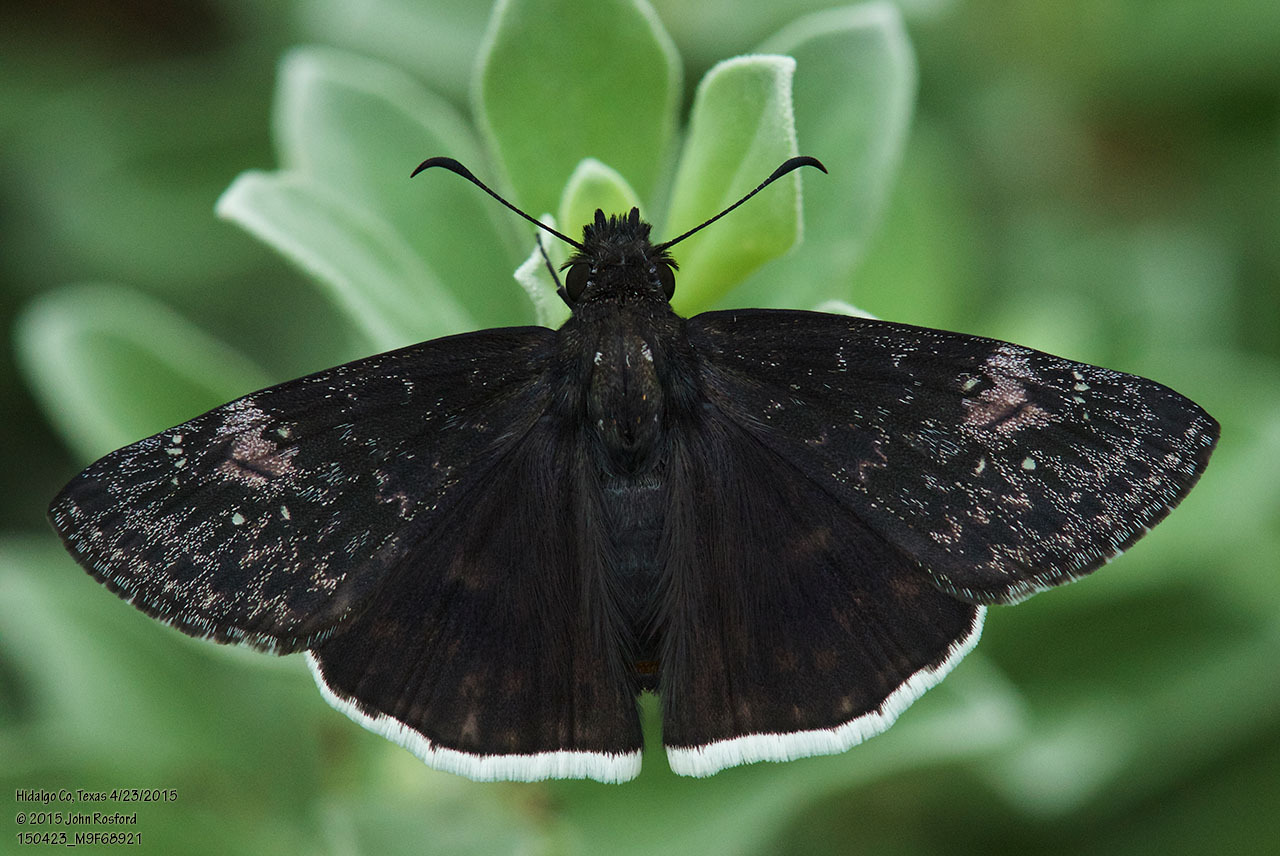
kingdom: Animalia
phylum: Arthropoda
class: Insecta
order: Lepidoptera
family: Hesperiidae
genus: Erynnis
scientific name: Erynnis funeralis
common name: Funereal duskywing
